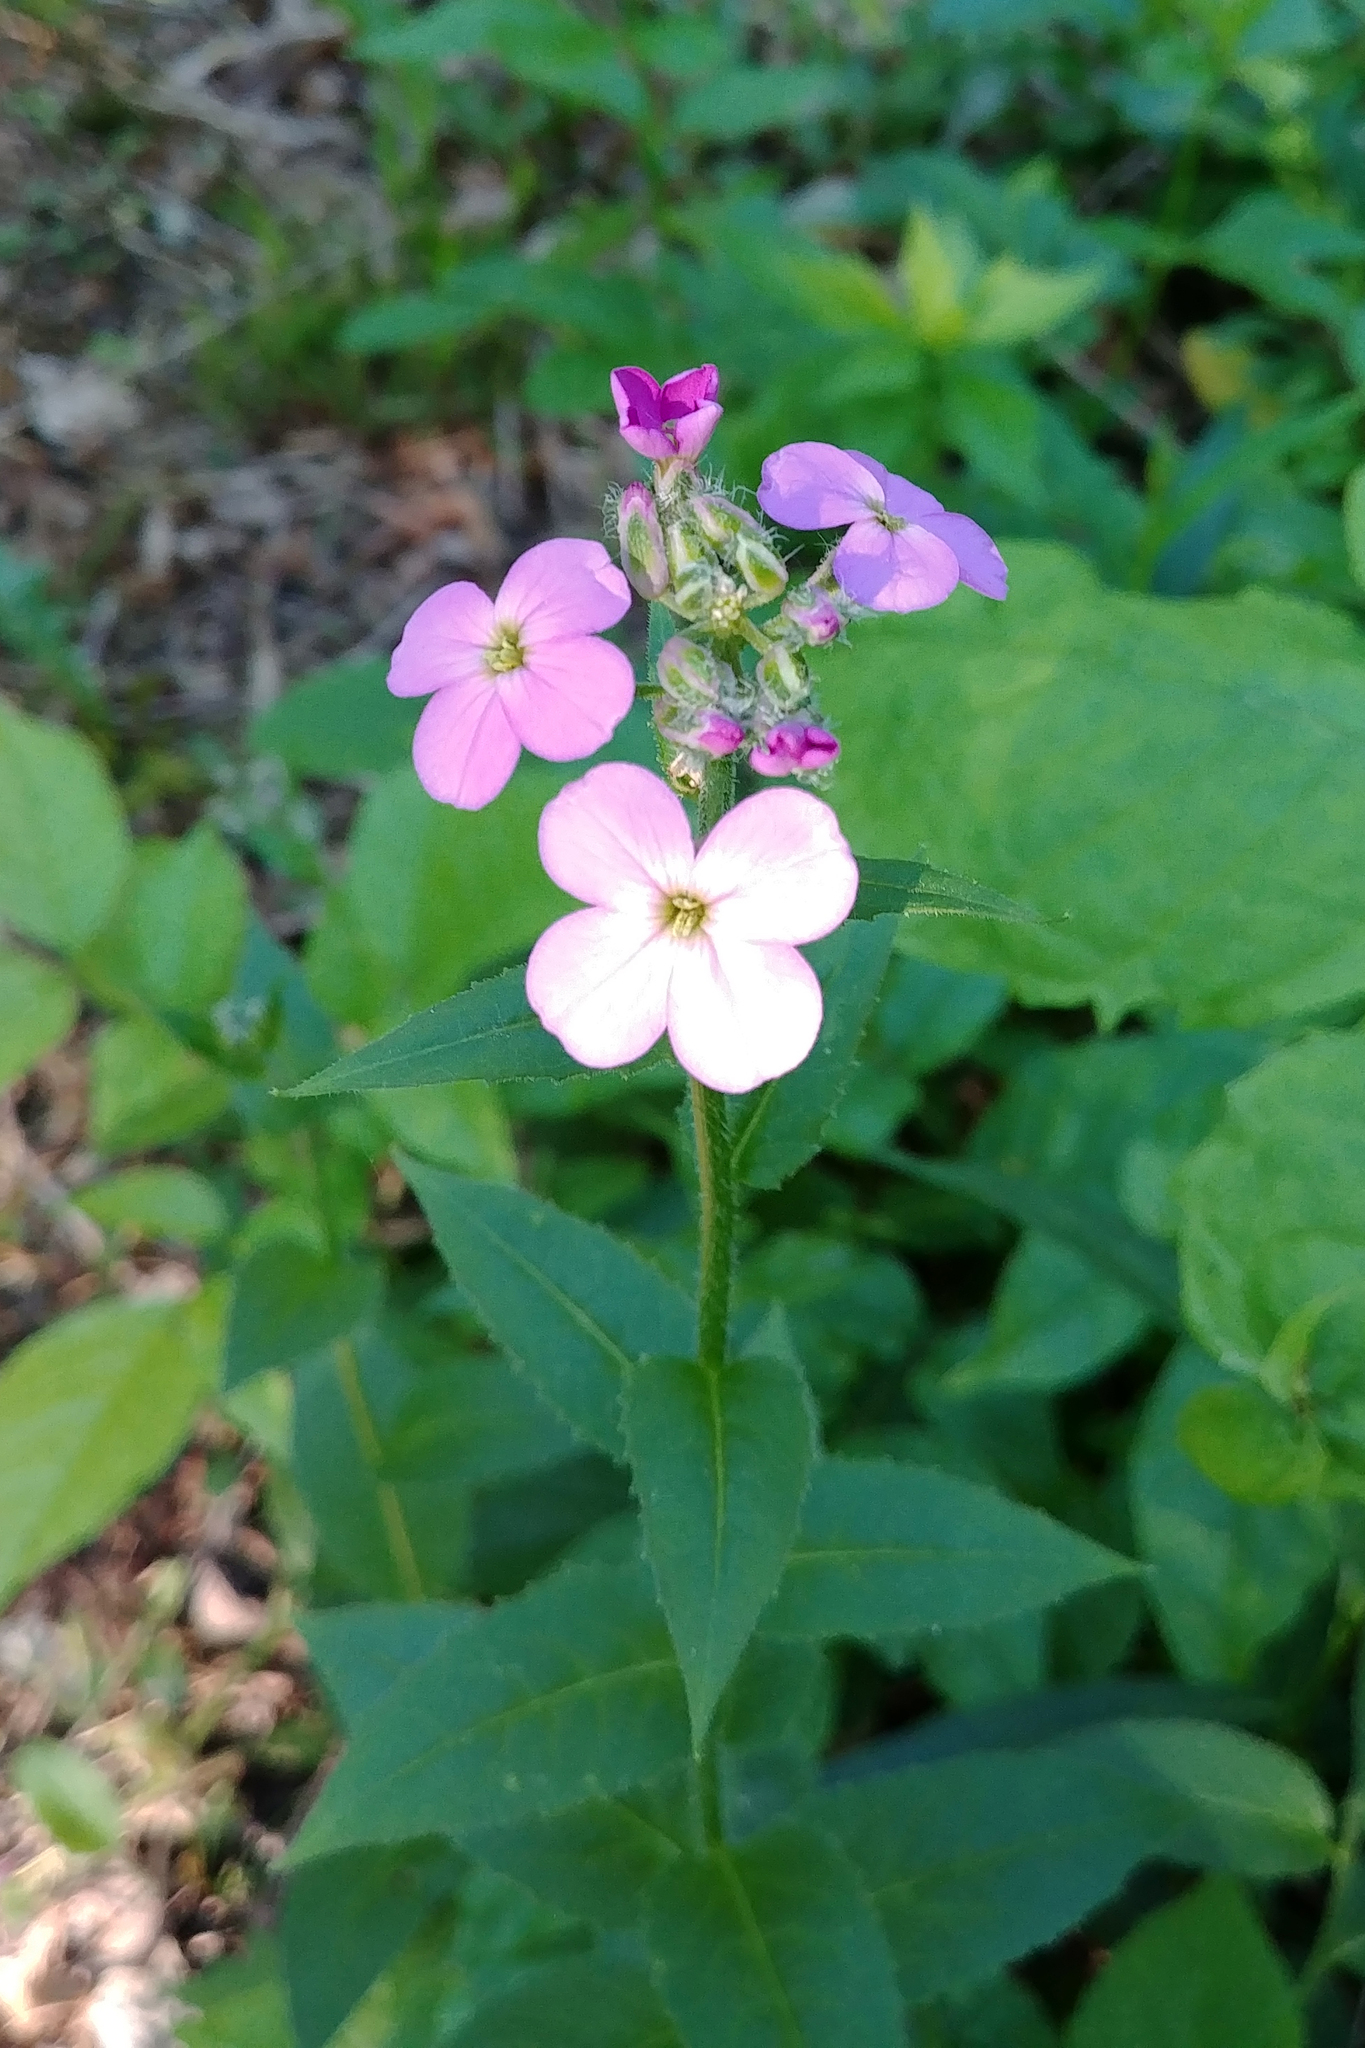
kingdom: Plantae
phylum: Tracheophyta
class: Magnoliopsida
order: Brassicales
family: Brassicaceae
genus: Hesperis
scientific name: Hesperis matronalis
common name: Dame's-violet
